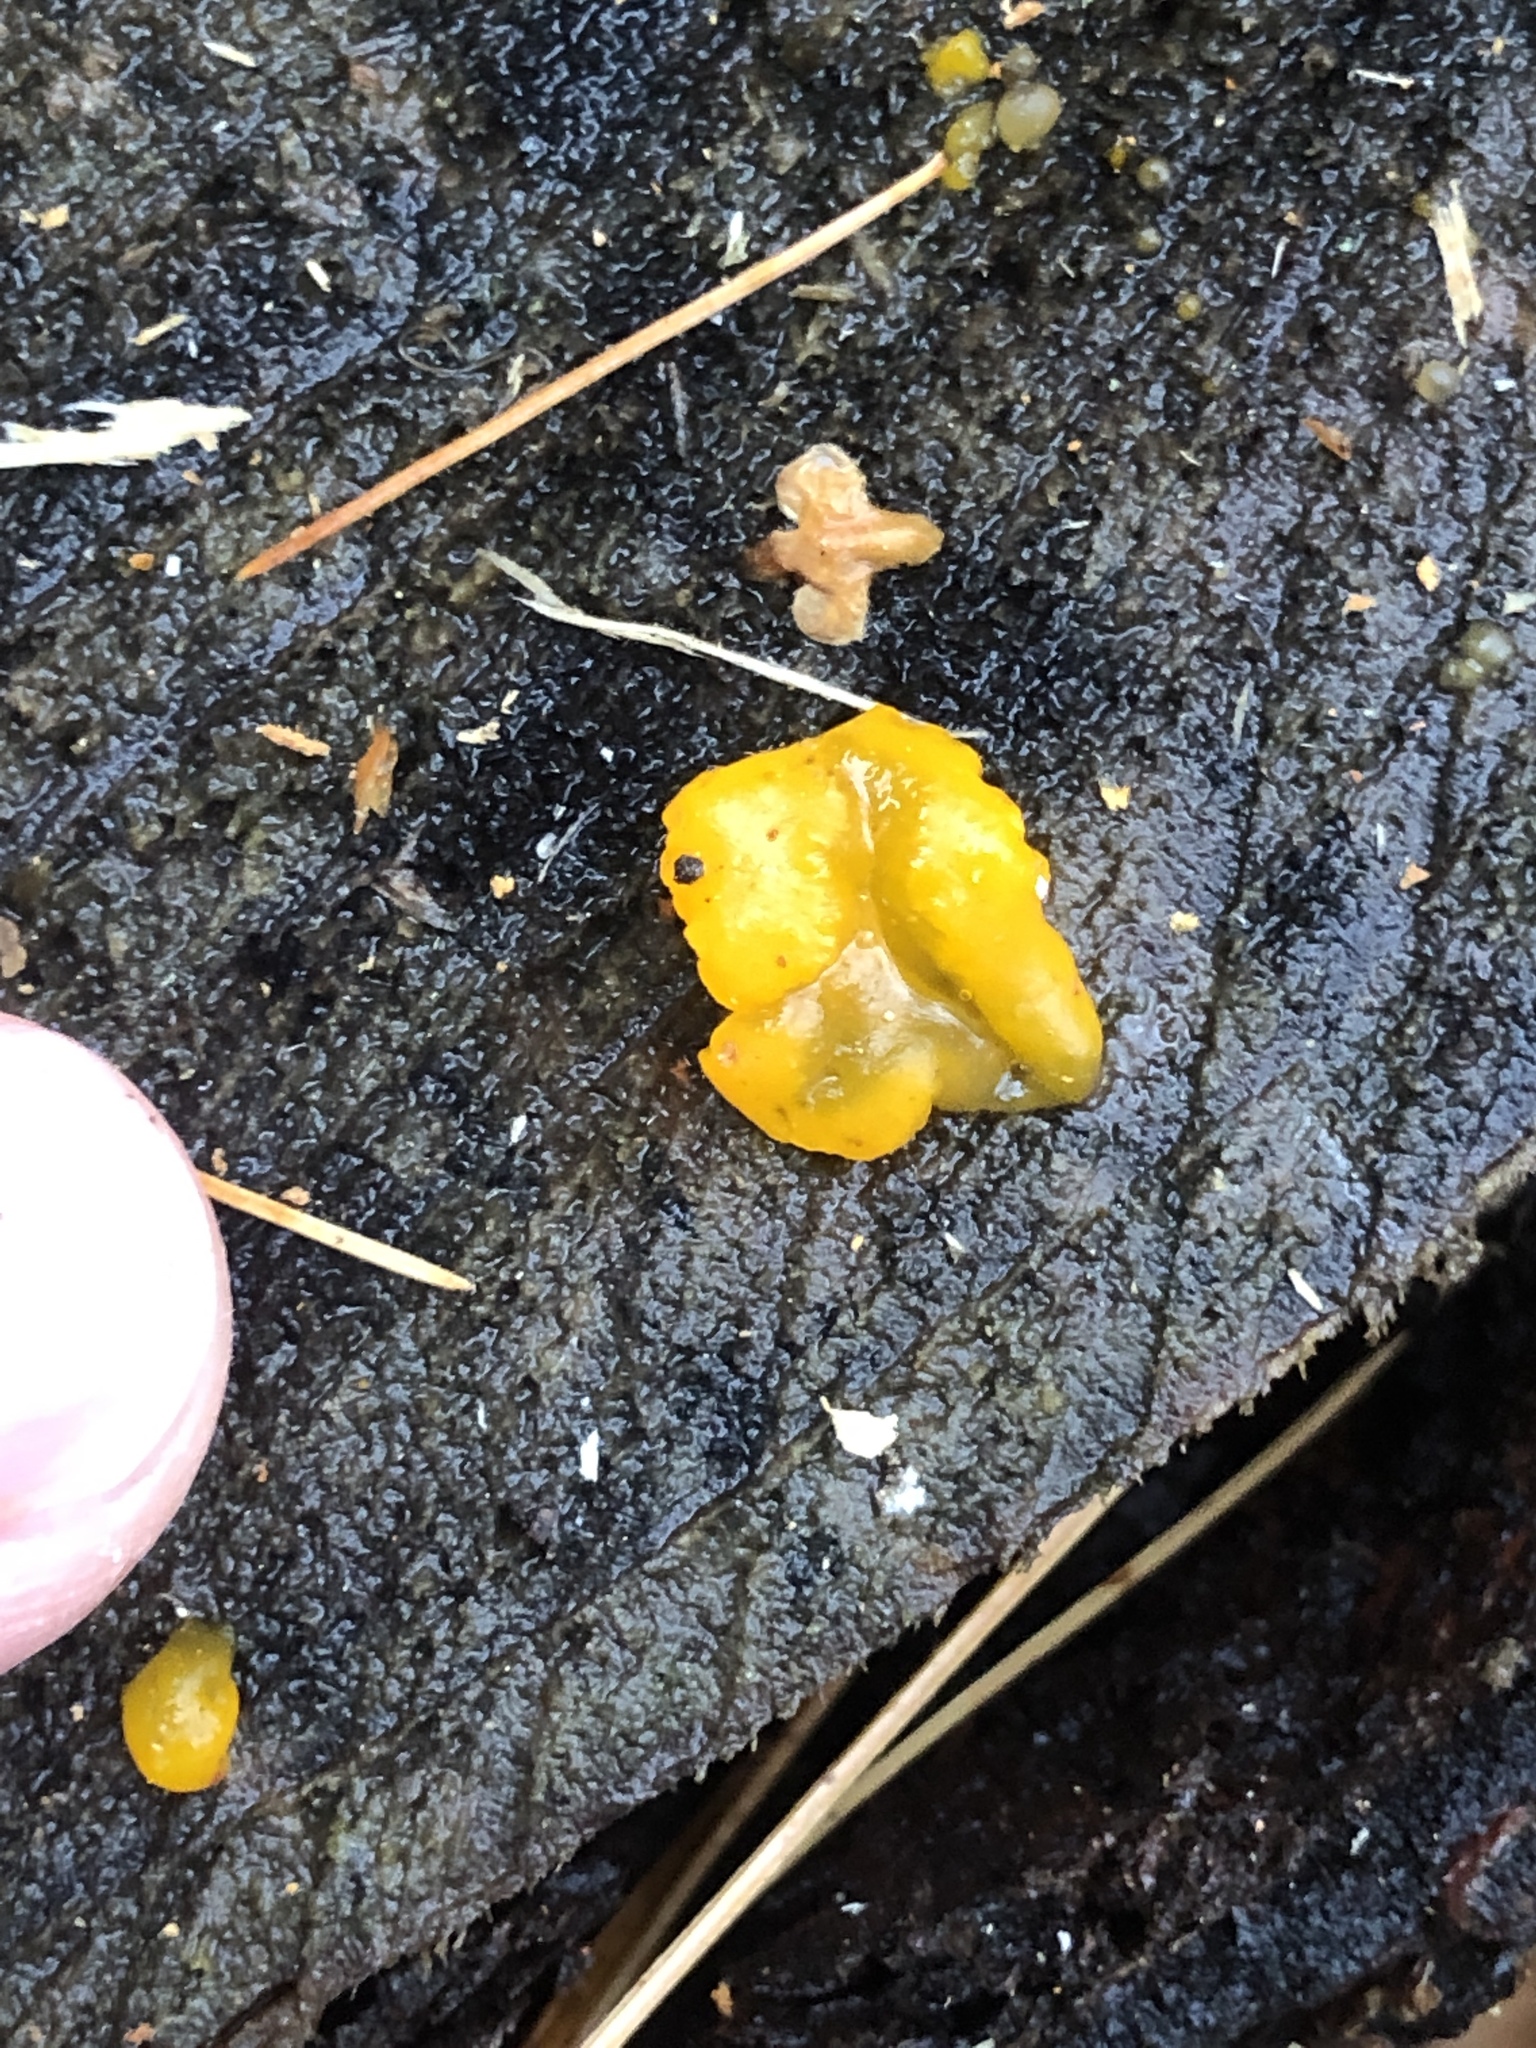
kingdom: Fungi
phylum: Basidiomycota
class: Dacrymycetes
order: Dacrymycetales
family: Dacrymycetaceae
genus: Dacrymyces
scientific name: Dacrymyces chrysospermus
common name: Orange jelly spot
